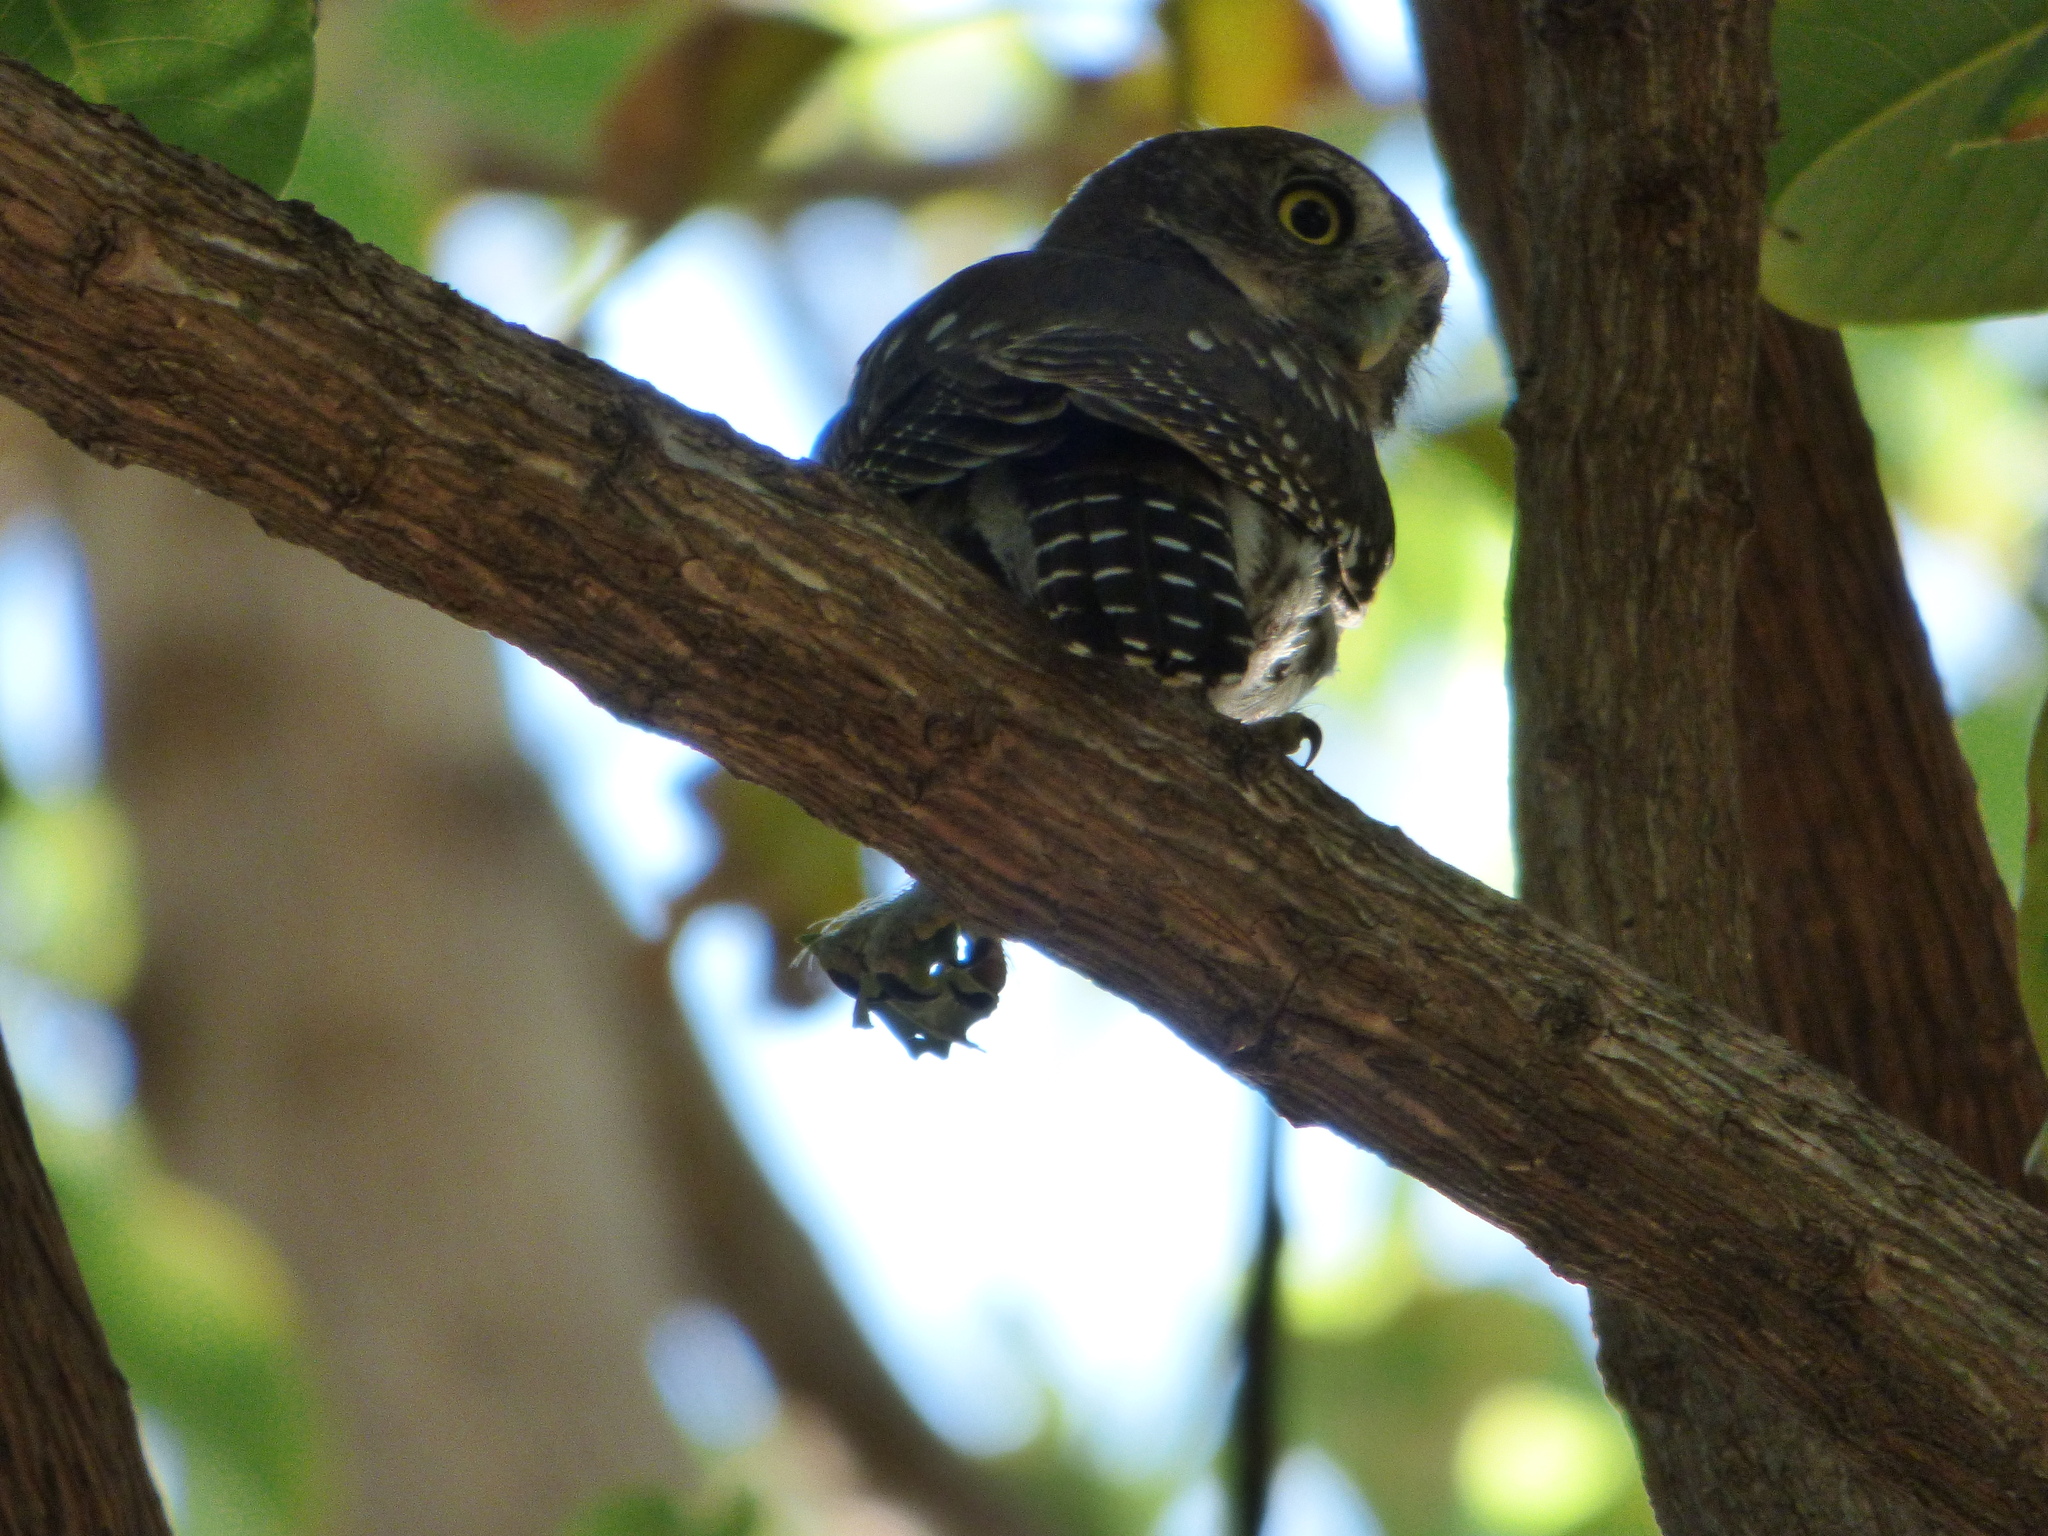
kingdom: Animalia
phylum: Chordata
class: Aves
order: Strigiformes
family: Strigidae
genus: Glaucidium
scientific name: Glaucidium brasilianum
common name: Ferruginous pygmy-owl
